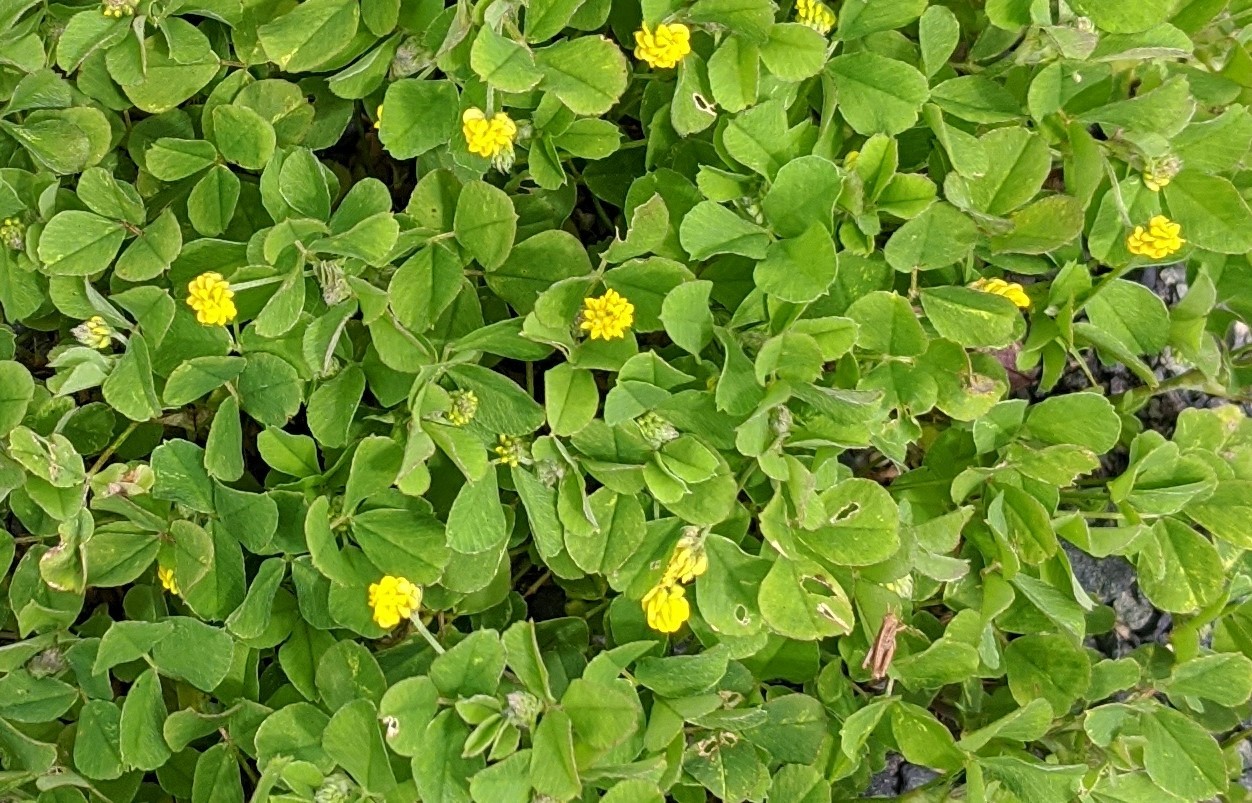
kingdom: Plantae
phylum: Tracheophyta
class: Magnoliopsida
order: Fabales
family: Fabaceae
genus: Medicago
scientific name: Medicago lupulina
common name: Black medick
